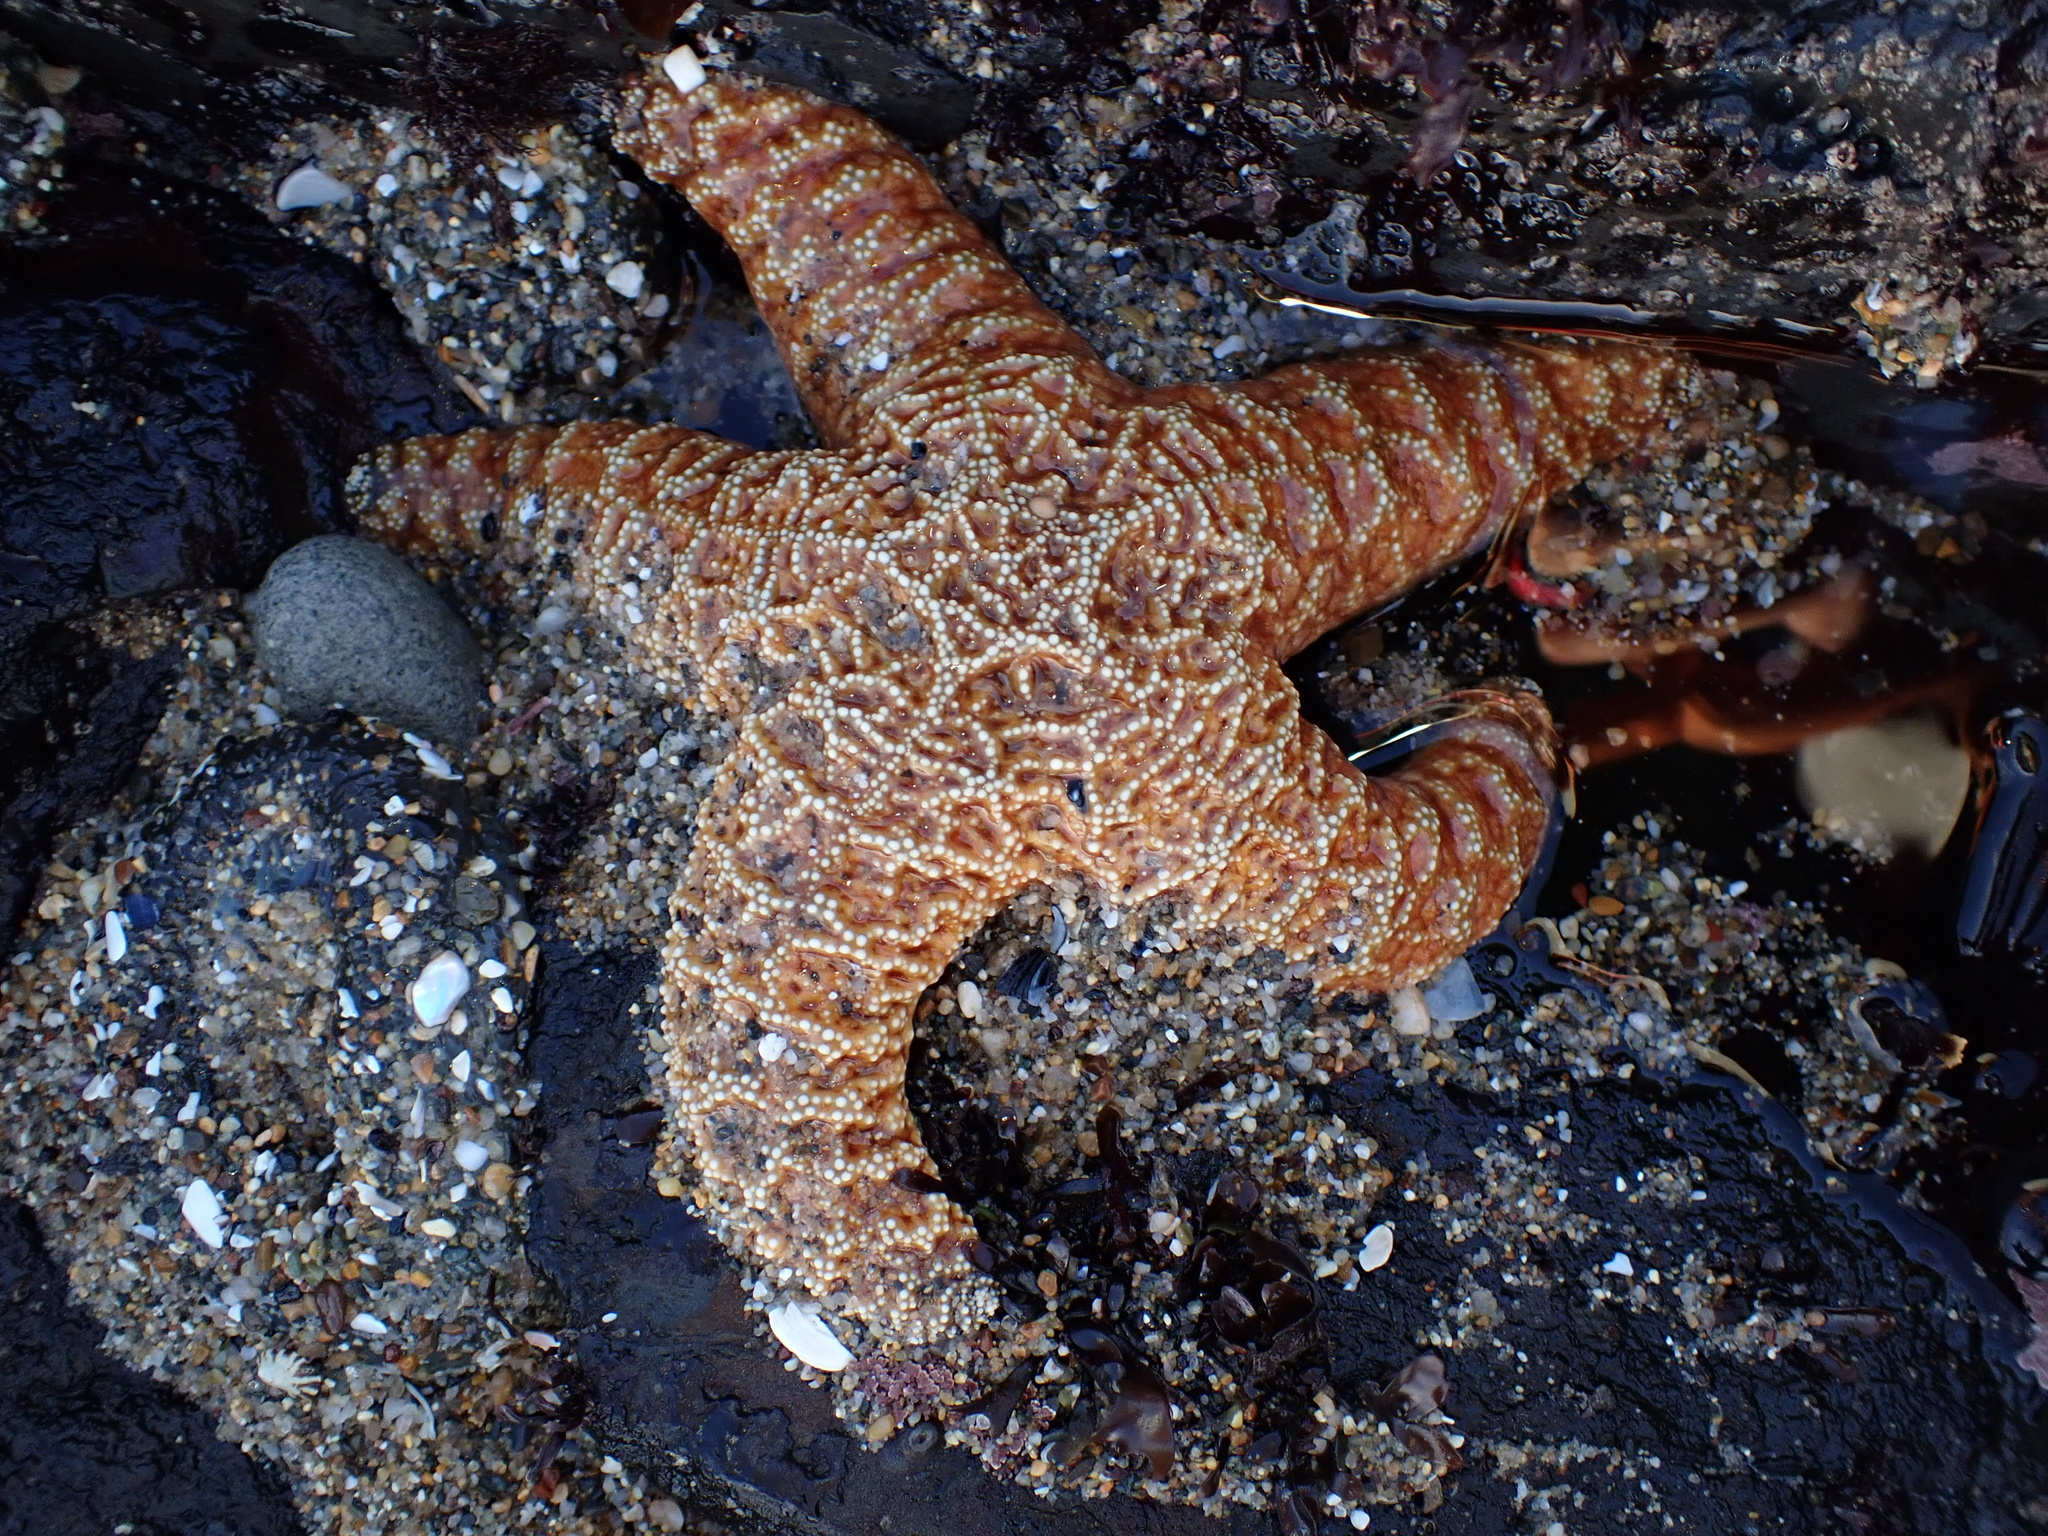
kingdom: Animalia
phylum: Echinodermata
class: Asteroidea
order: Forcipulatida
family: Asteriidae
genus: Pisaster
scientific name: Pisaster ochraceus
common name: Ochre stars
